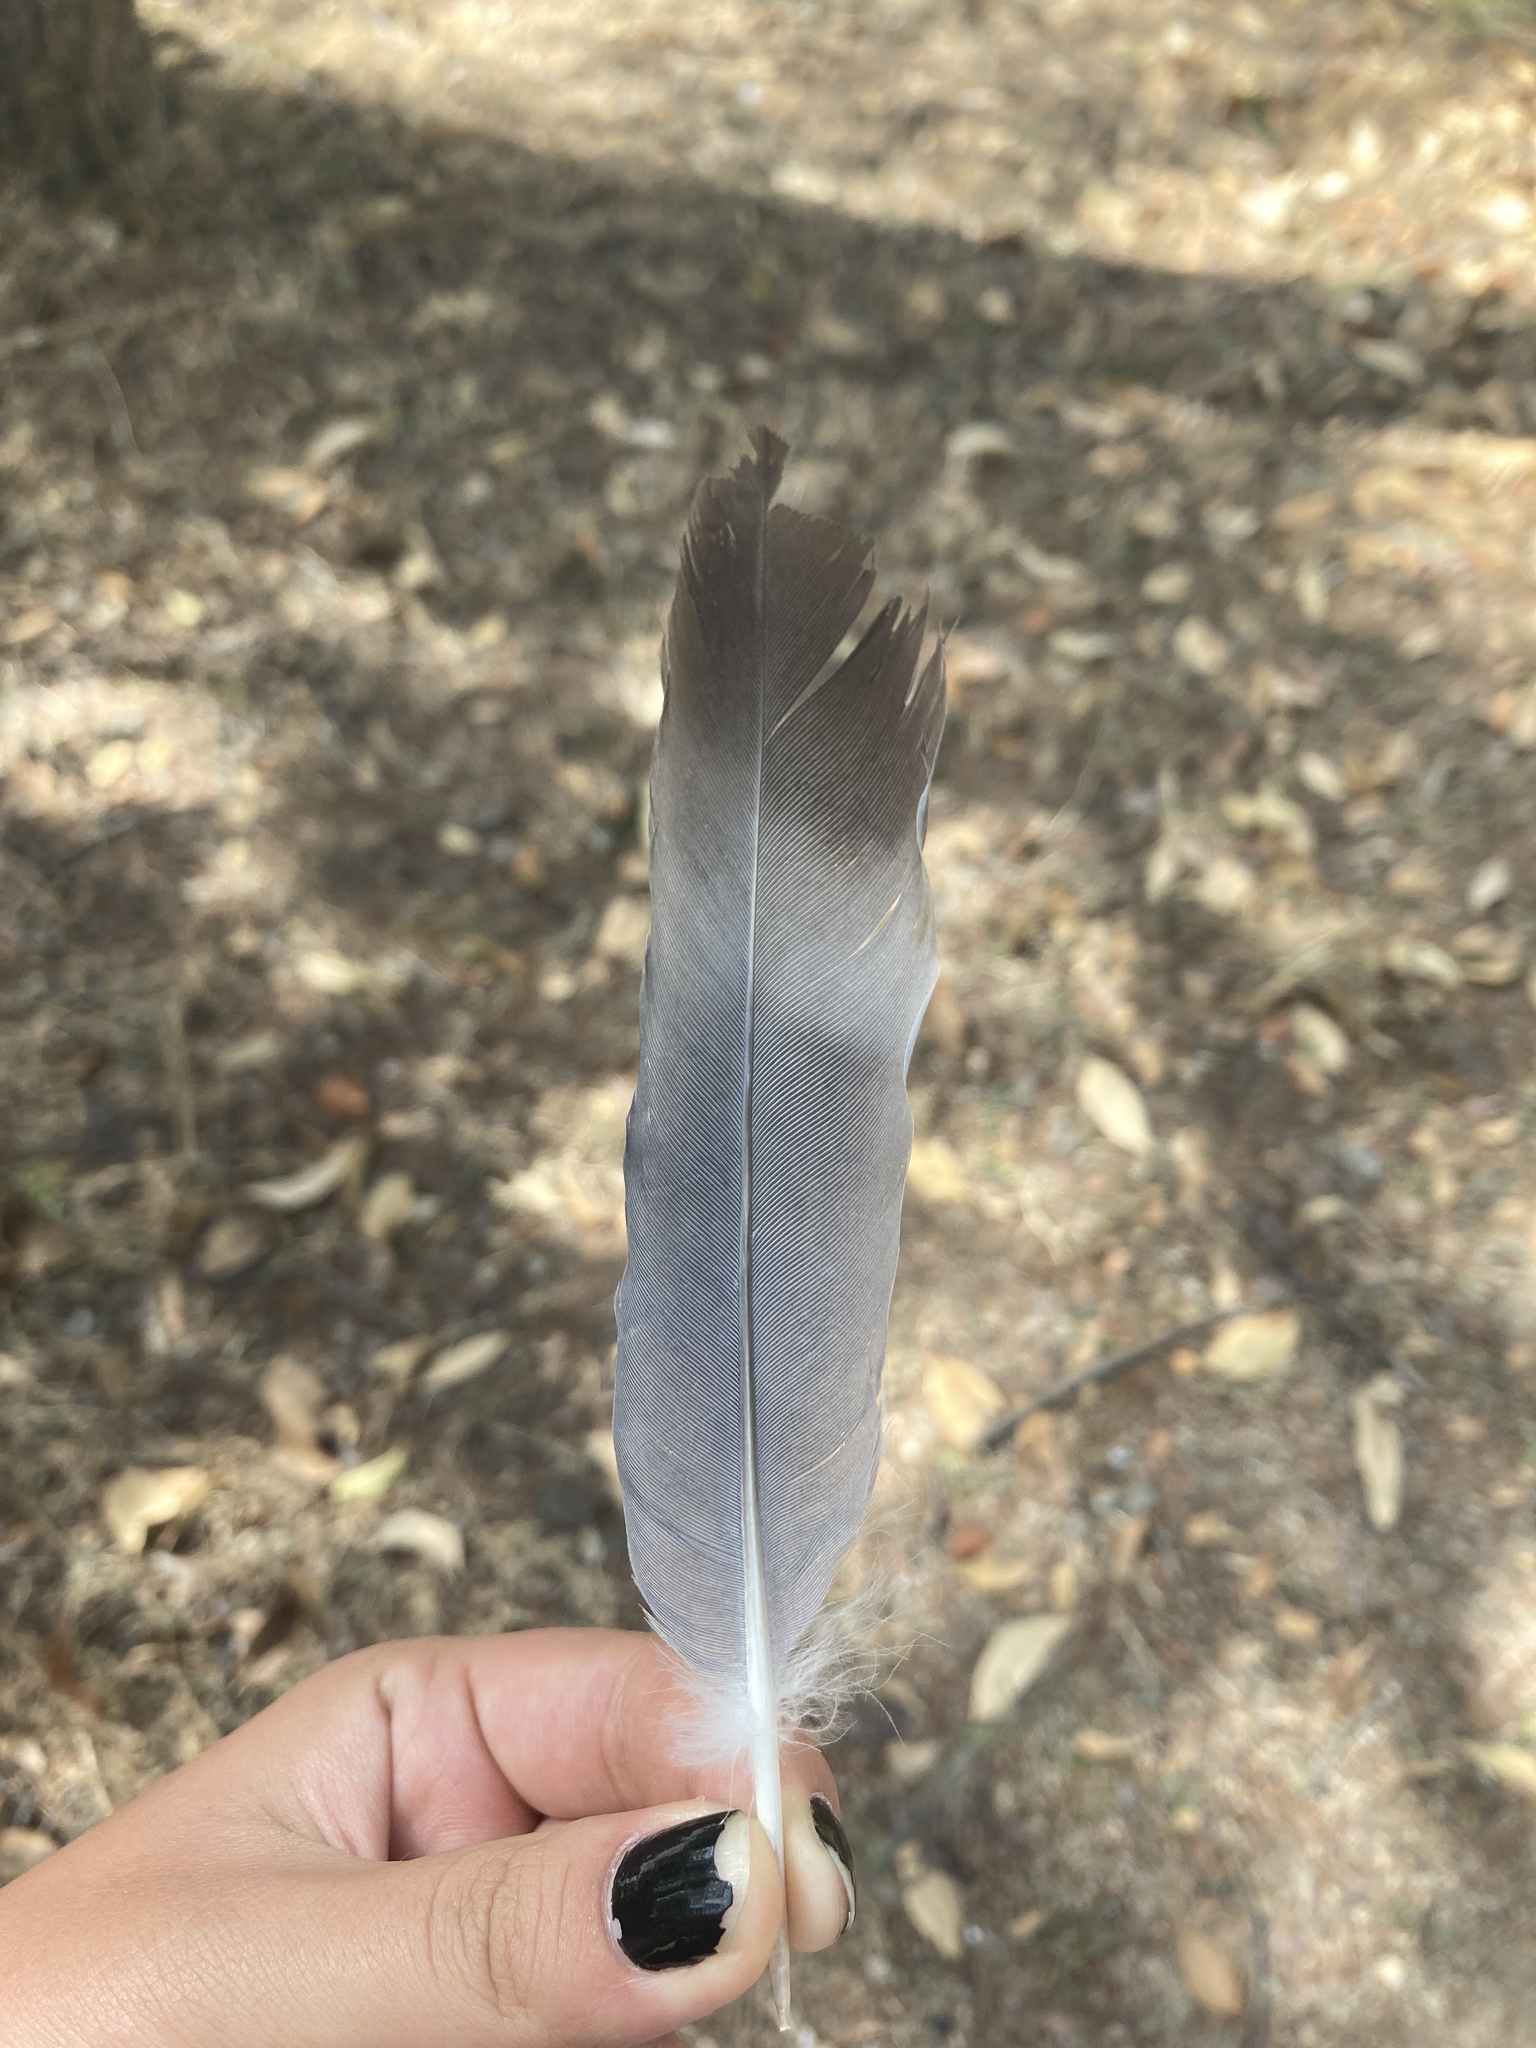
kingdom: Animalia
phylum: Chordata
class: Aves
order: Columbiformes
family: Columbidae
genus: Columba
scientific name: Columba palumbus
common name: Common wood pigeon
